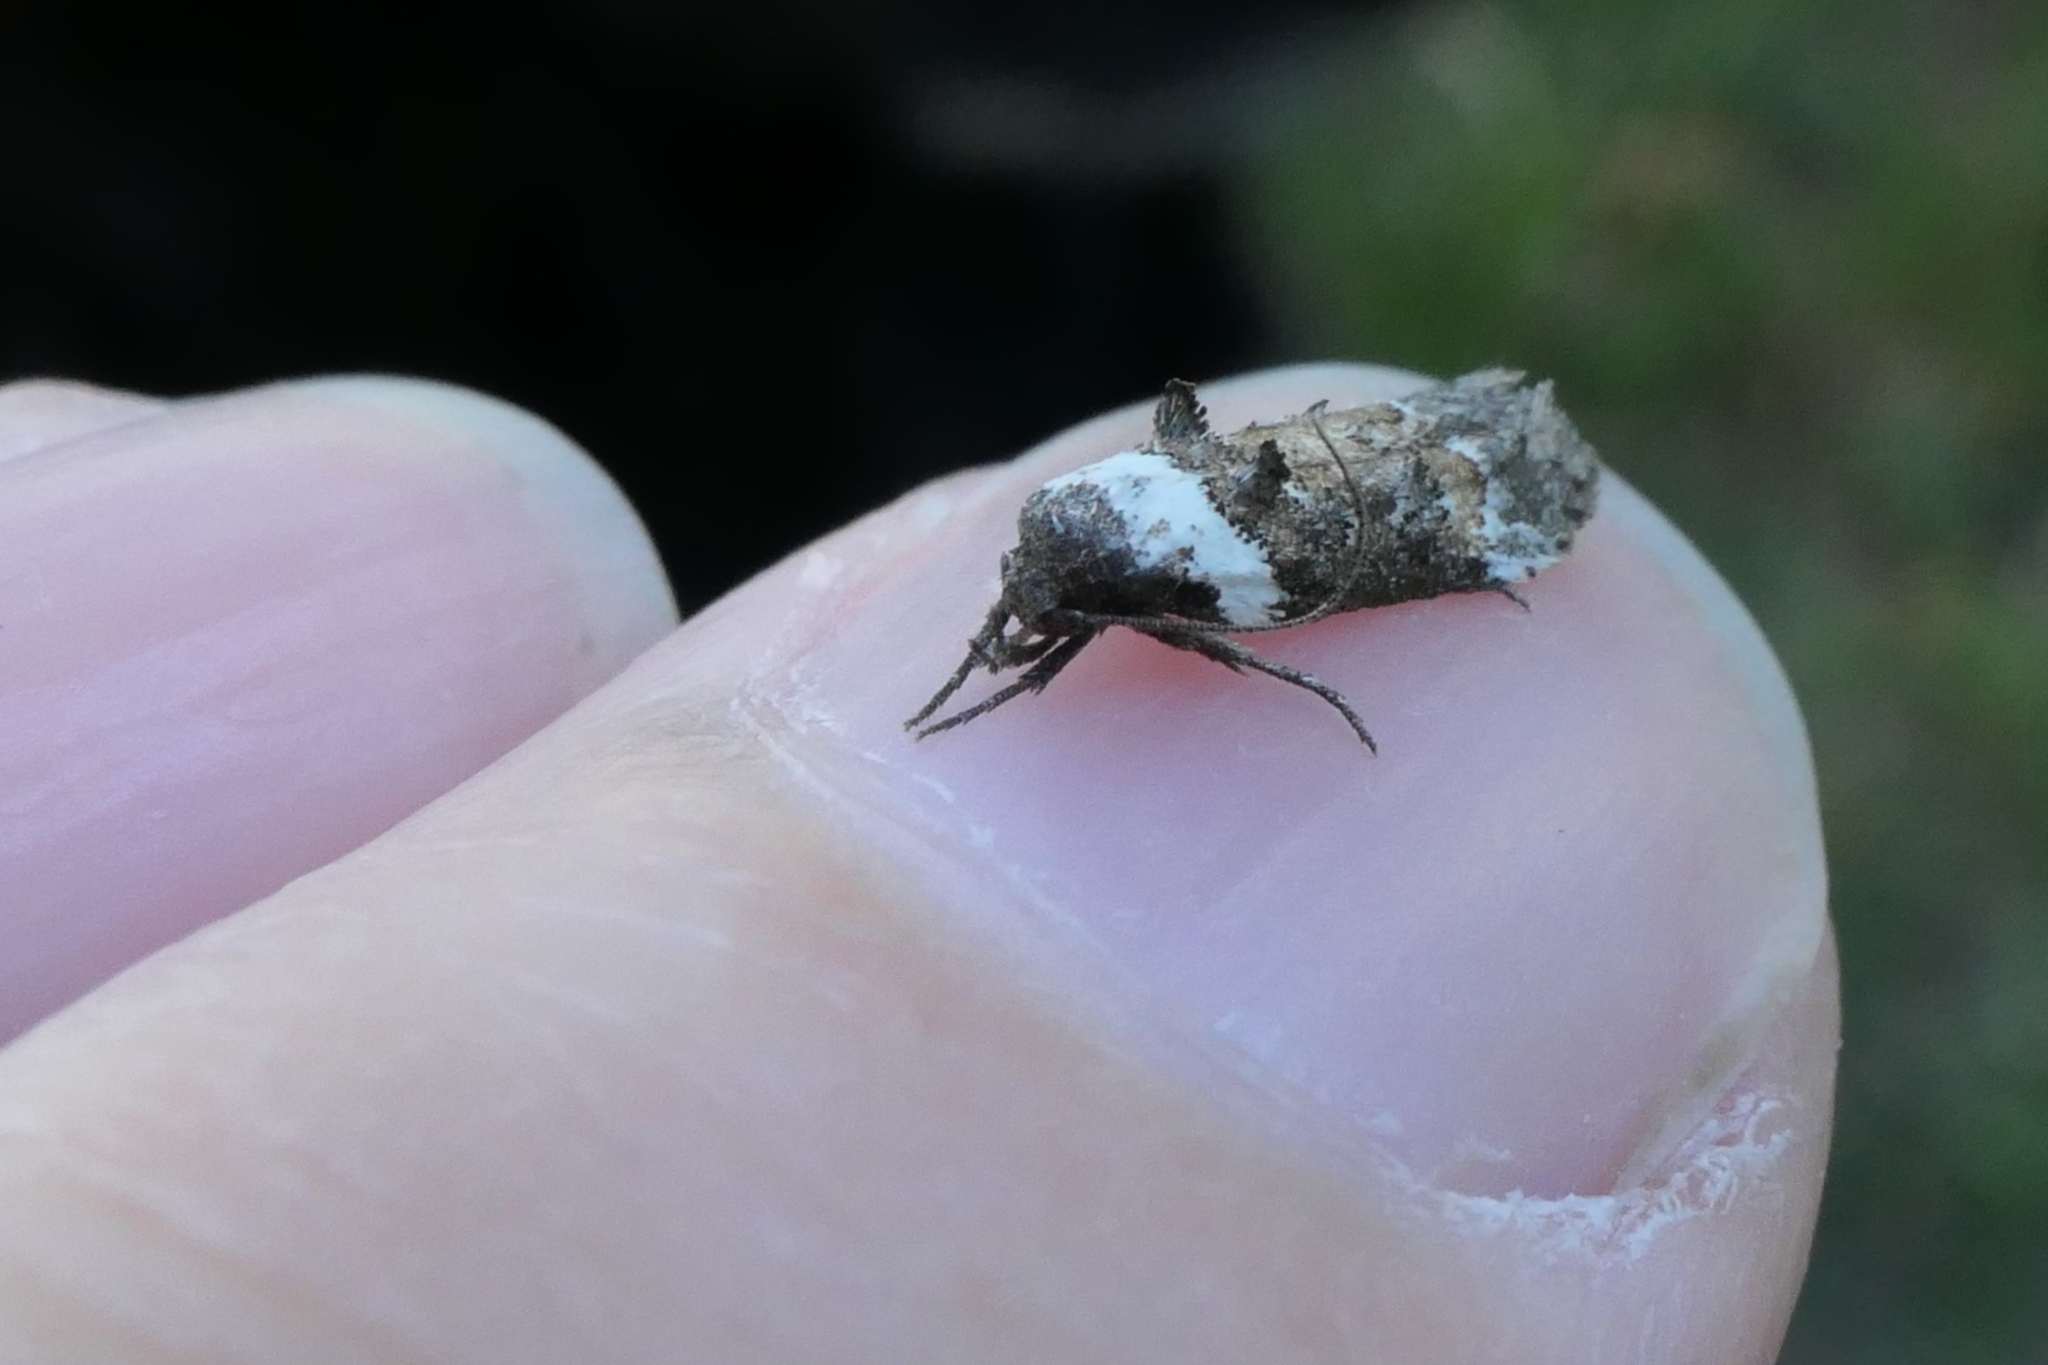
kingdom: Animalia
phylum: Arthropoda
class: Insecta
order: Lepidoptera
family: Oecophoridae
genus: Trachypepla
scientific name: Trachypepla conspicuella
